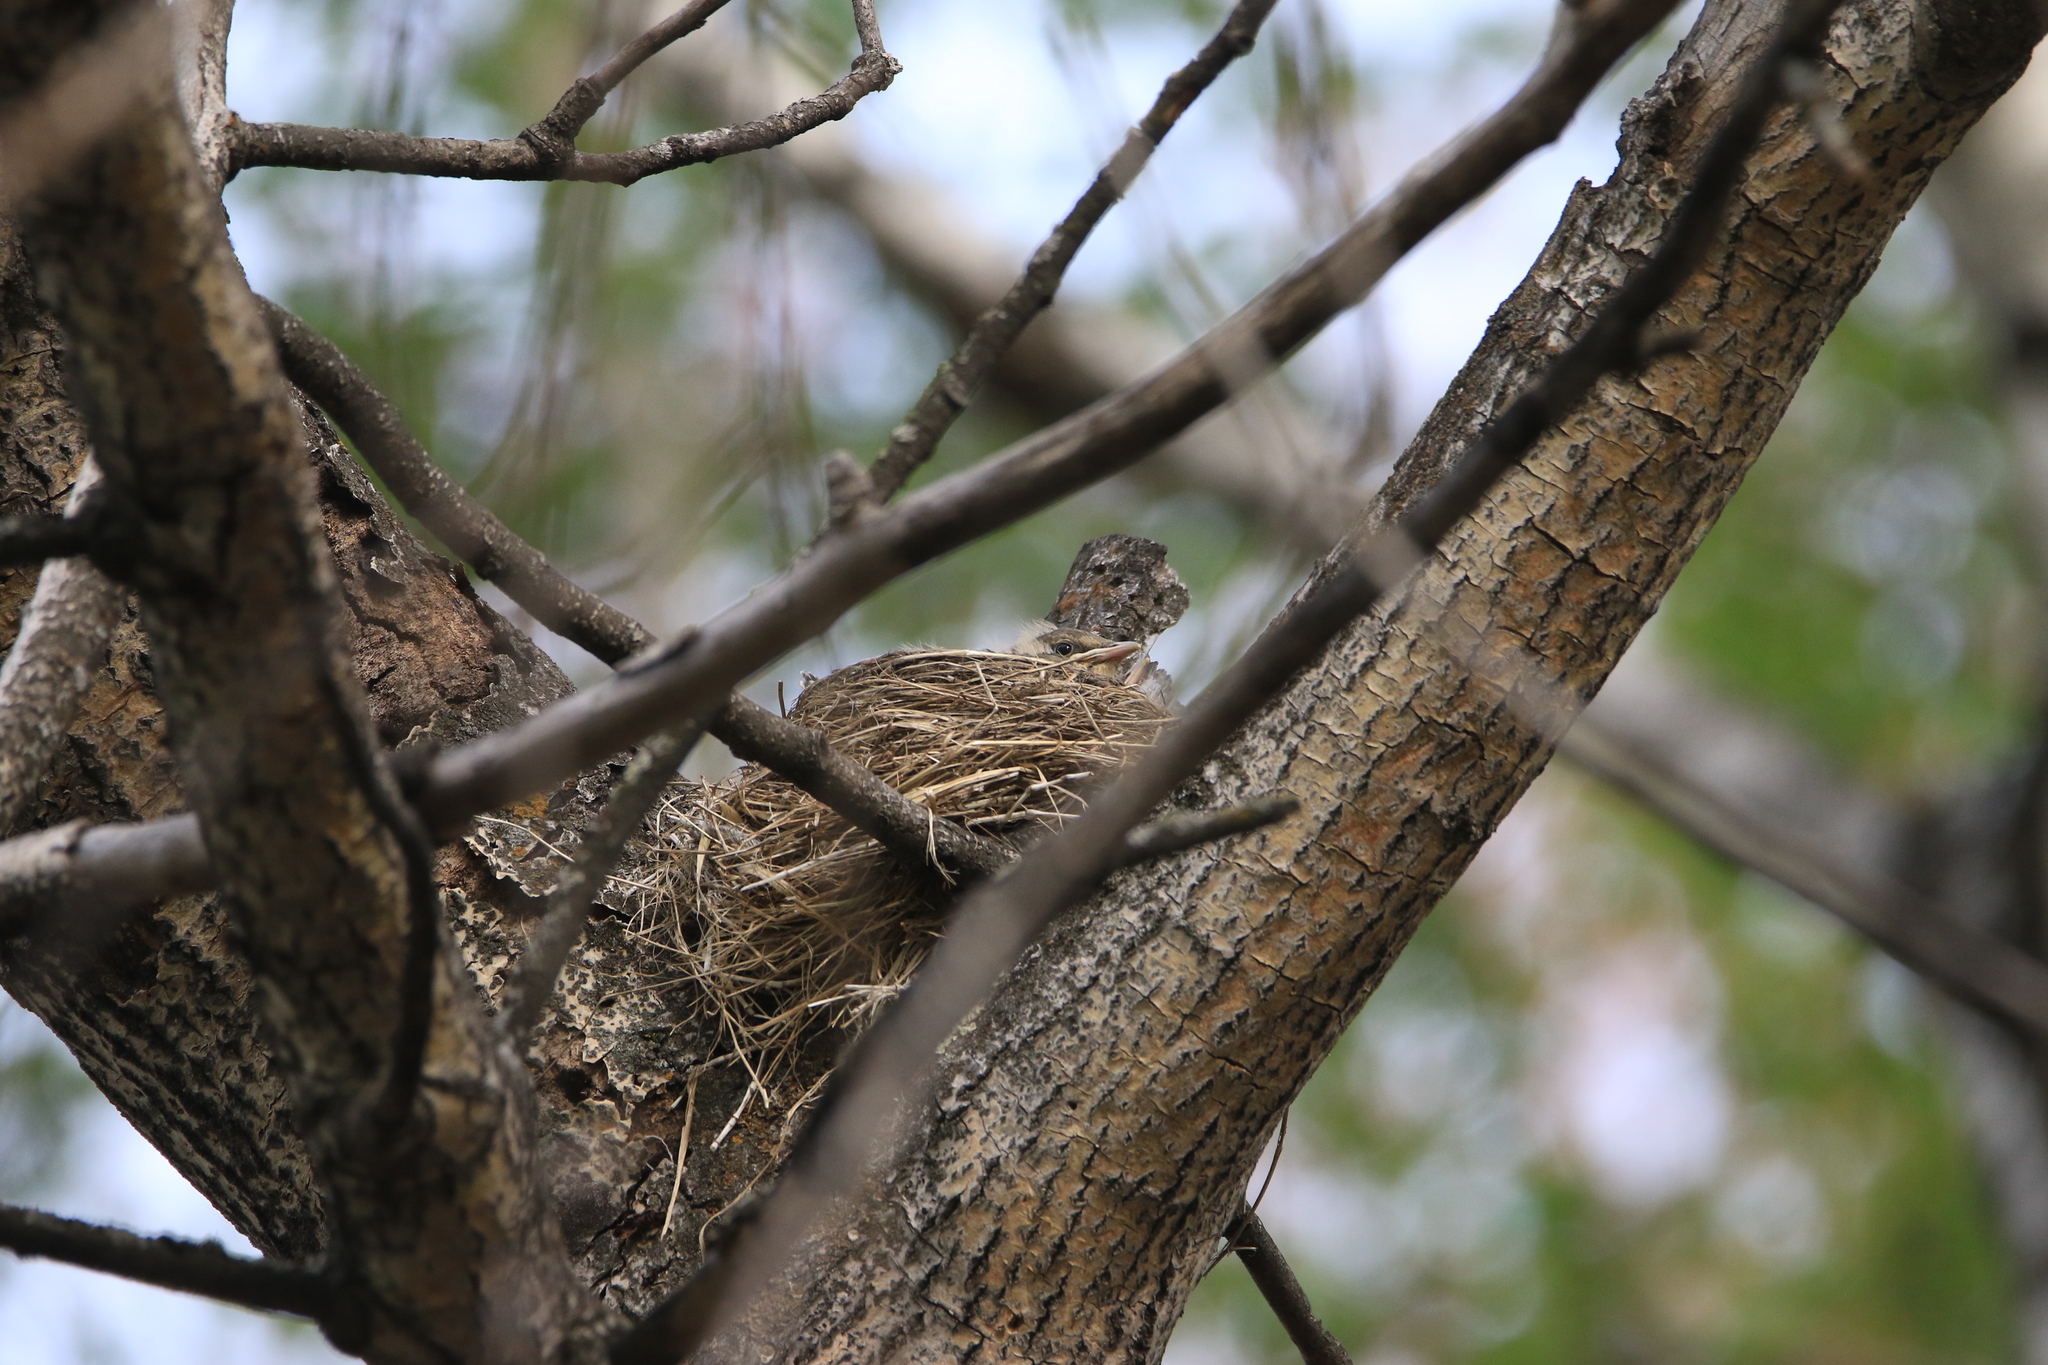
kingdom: Animalia
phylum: Chordata
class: Aves
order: Passeriformes
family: Turdidae
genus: Turdus
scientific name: Turdus pilaris
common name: Fieldfare
